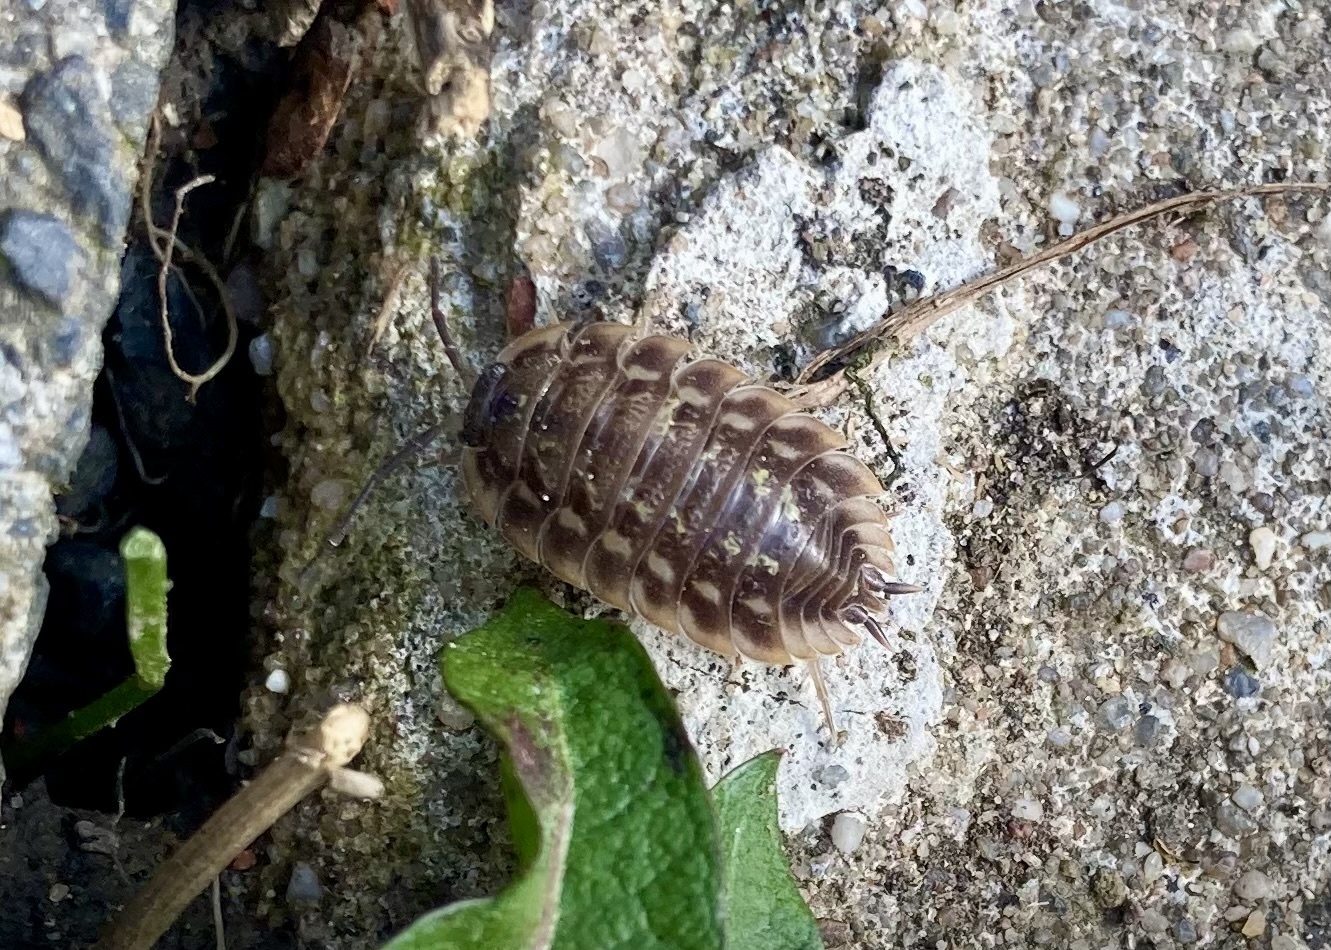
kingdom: Animalia
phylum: Arthropoda
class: Malacostraca
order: Isopoda
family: Oniscidae
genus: Oniscus
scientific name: Oniscus asellus
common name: Common shiny woodlouse
